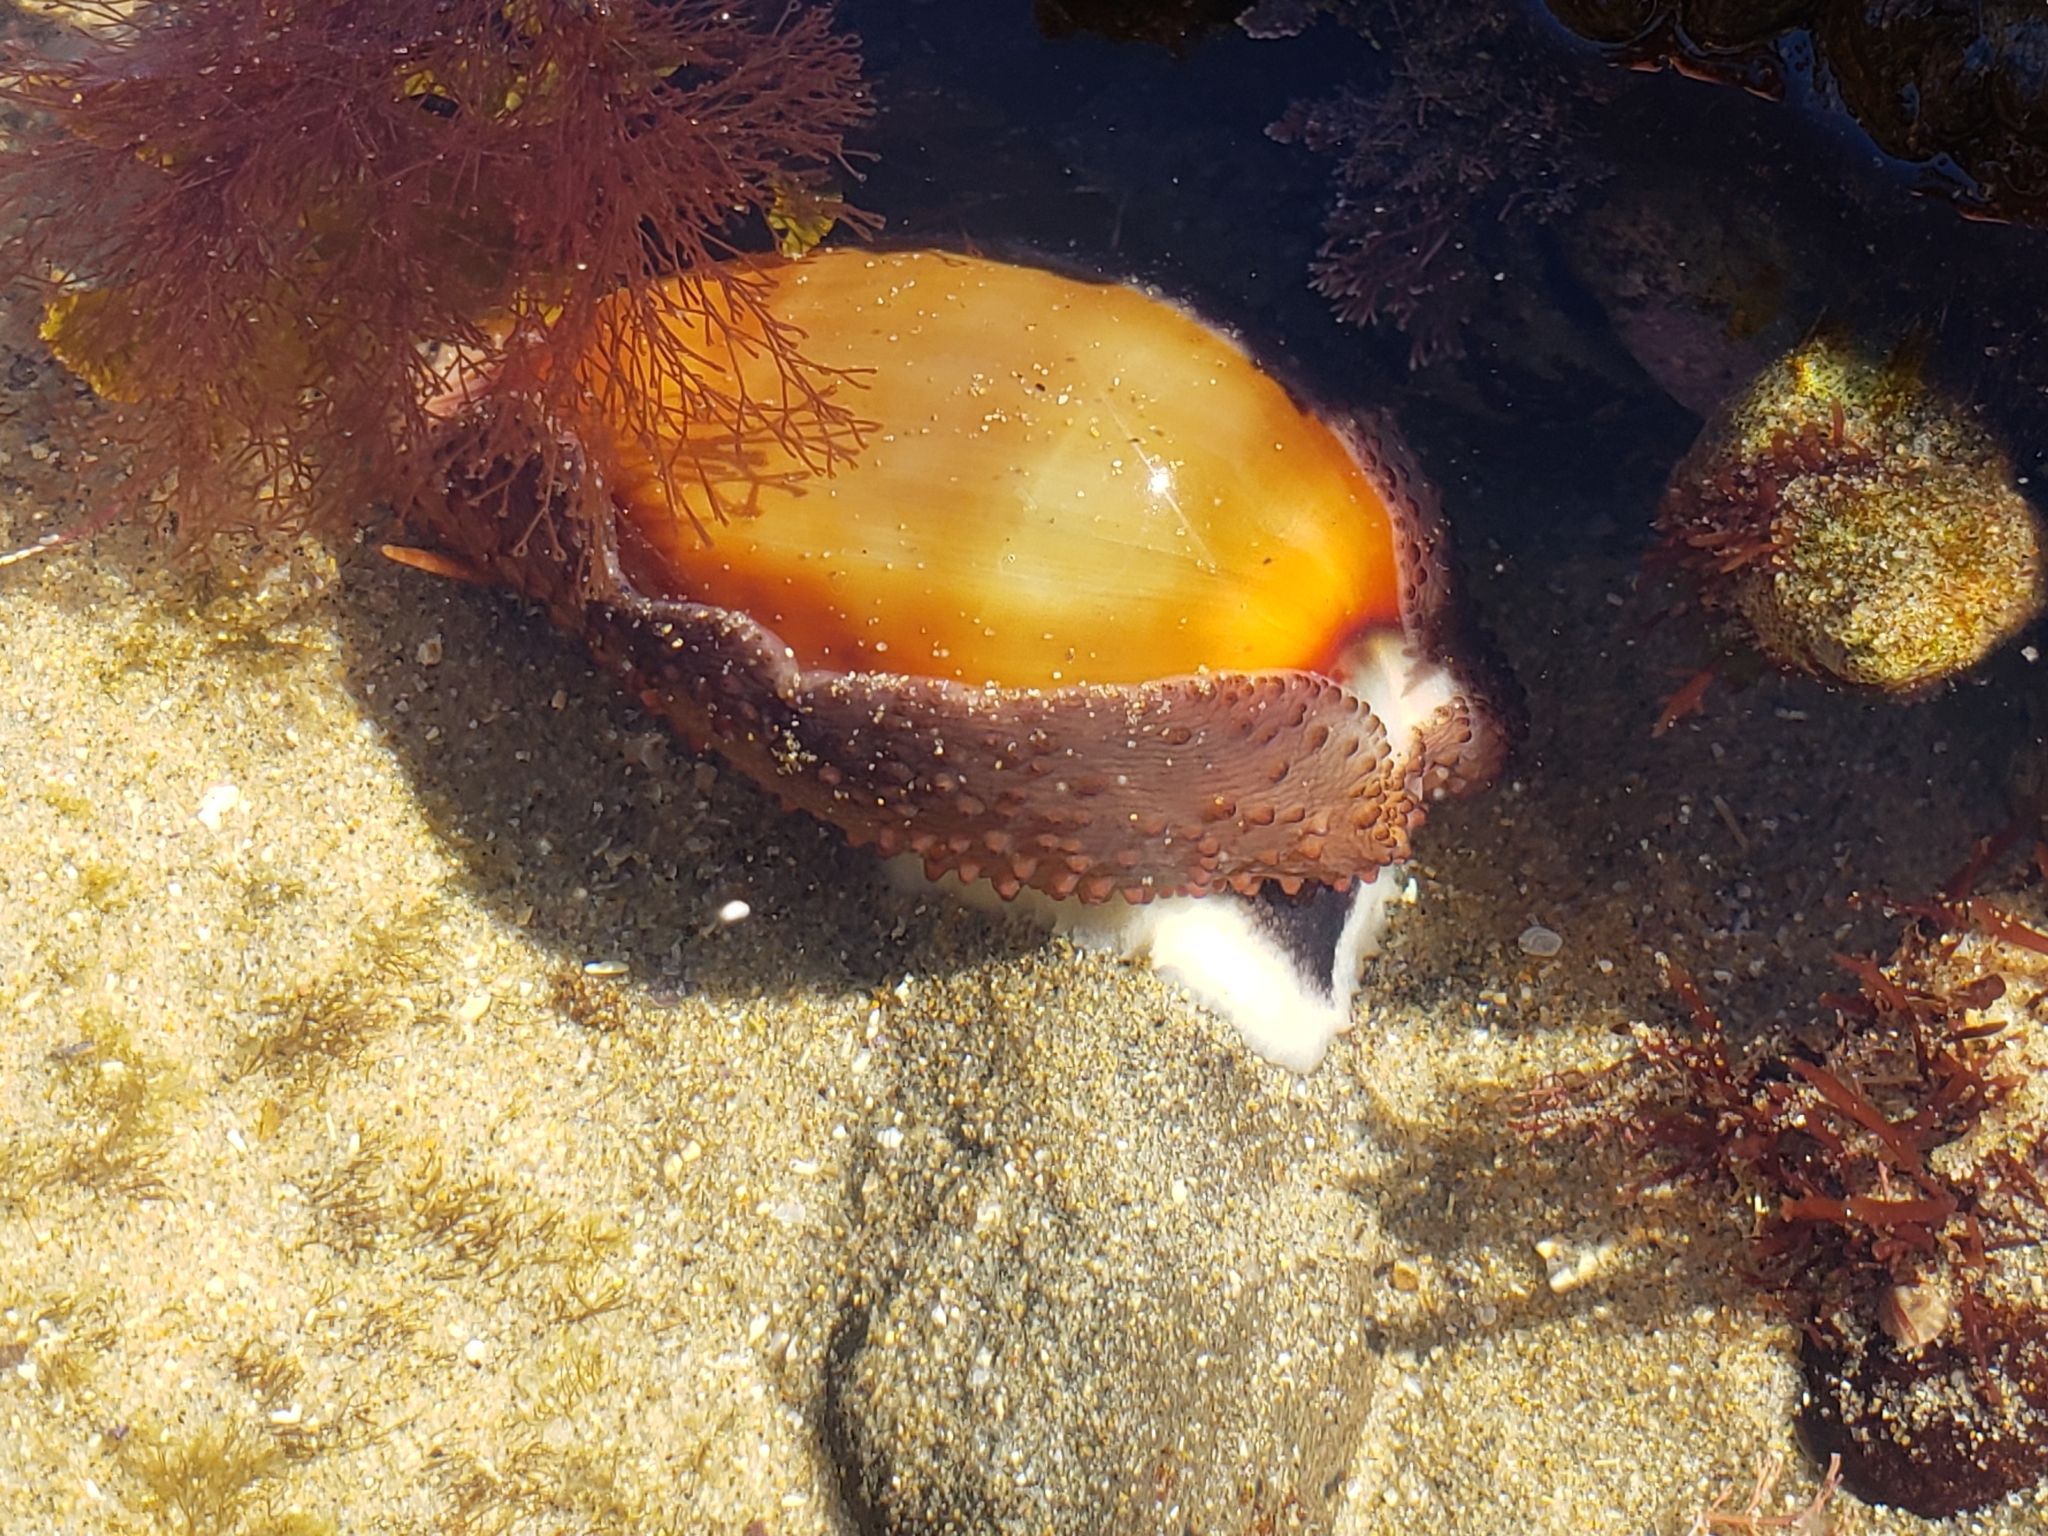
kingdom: Animalia
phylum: Mollusca
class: Gastropoda
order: Littorinimorpha
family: Cypraeidae
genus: Neobernaya
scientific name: Neobernaya spadicea
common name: Chestnut cowrie
